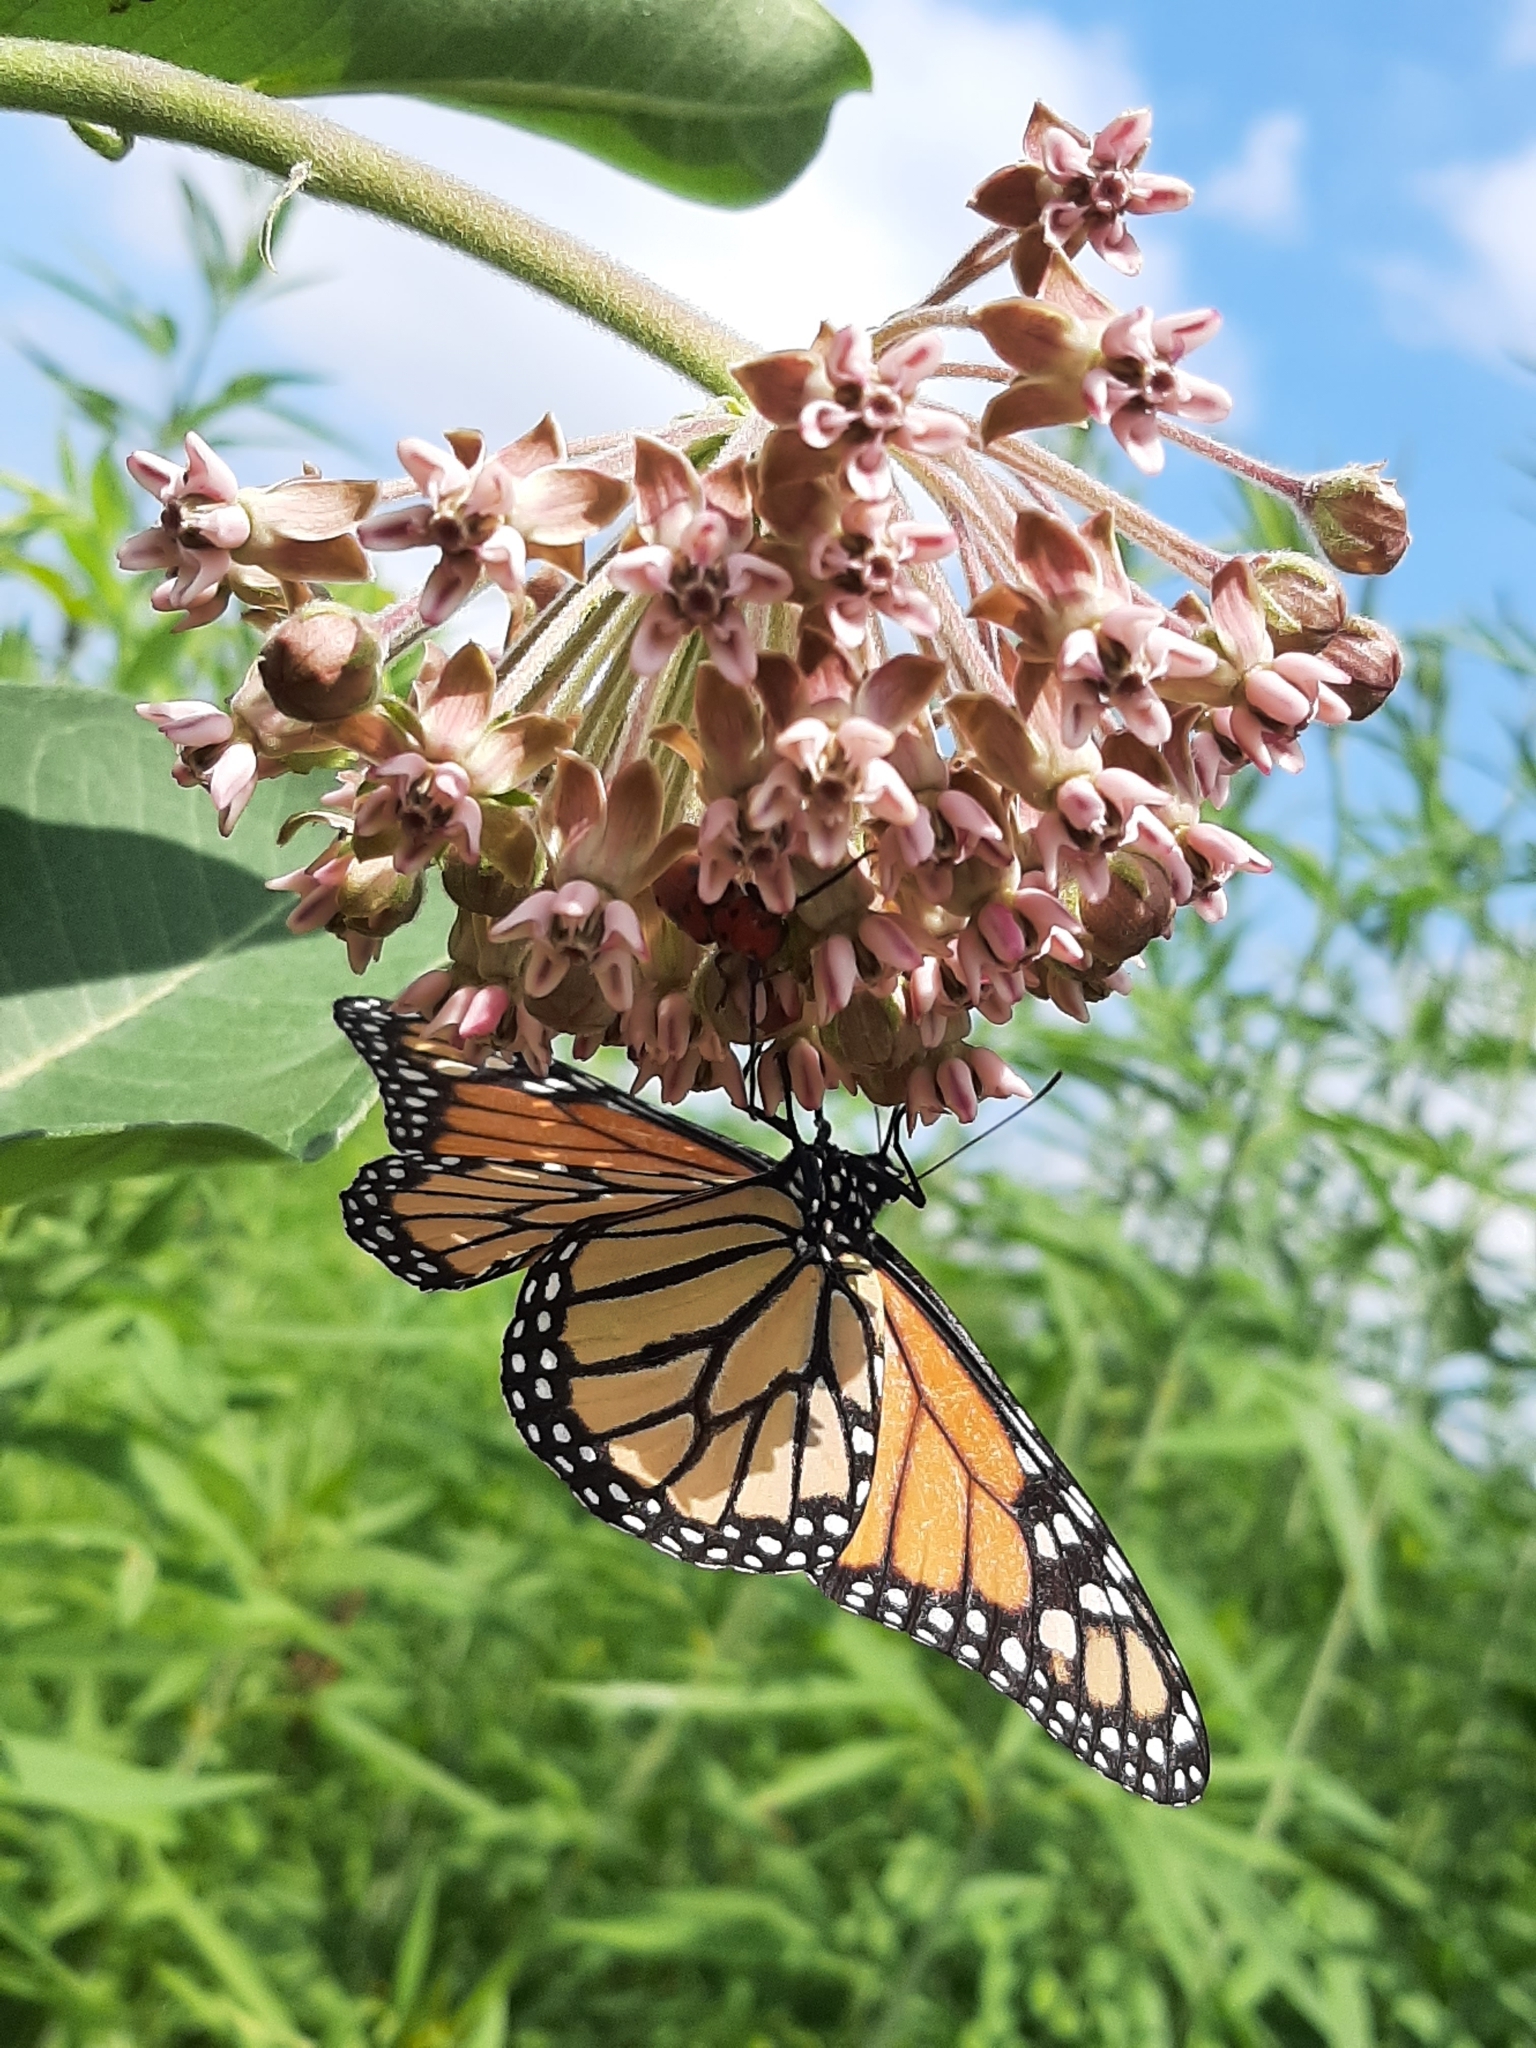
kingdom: Animalia
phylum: Arthropoda
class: Insecta
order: Lepidoptera
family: Nymphalidae
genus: Danaus
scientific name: Danaus plexippus
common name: Monarch
